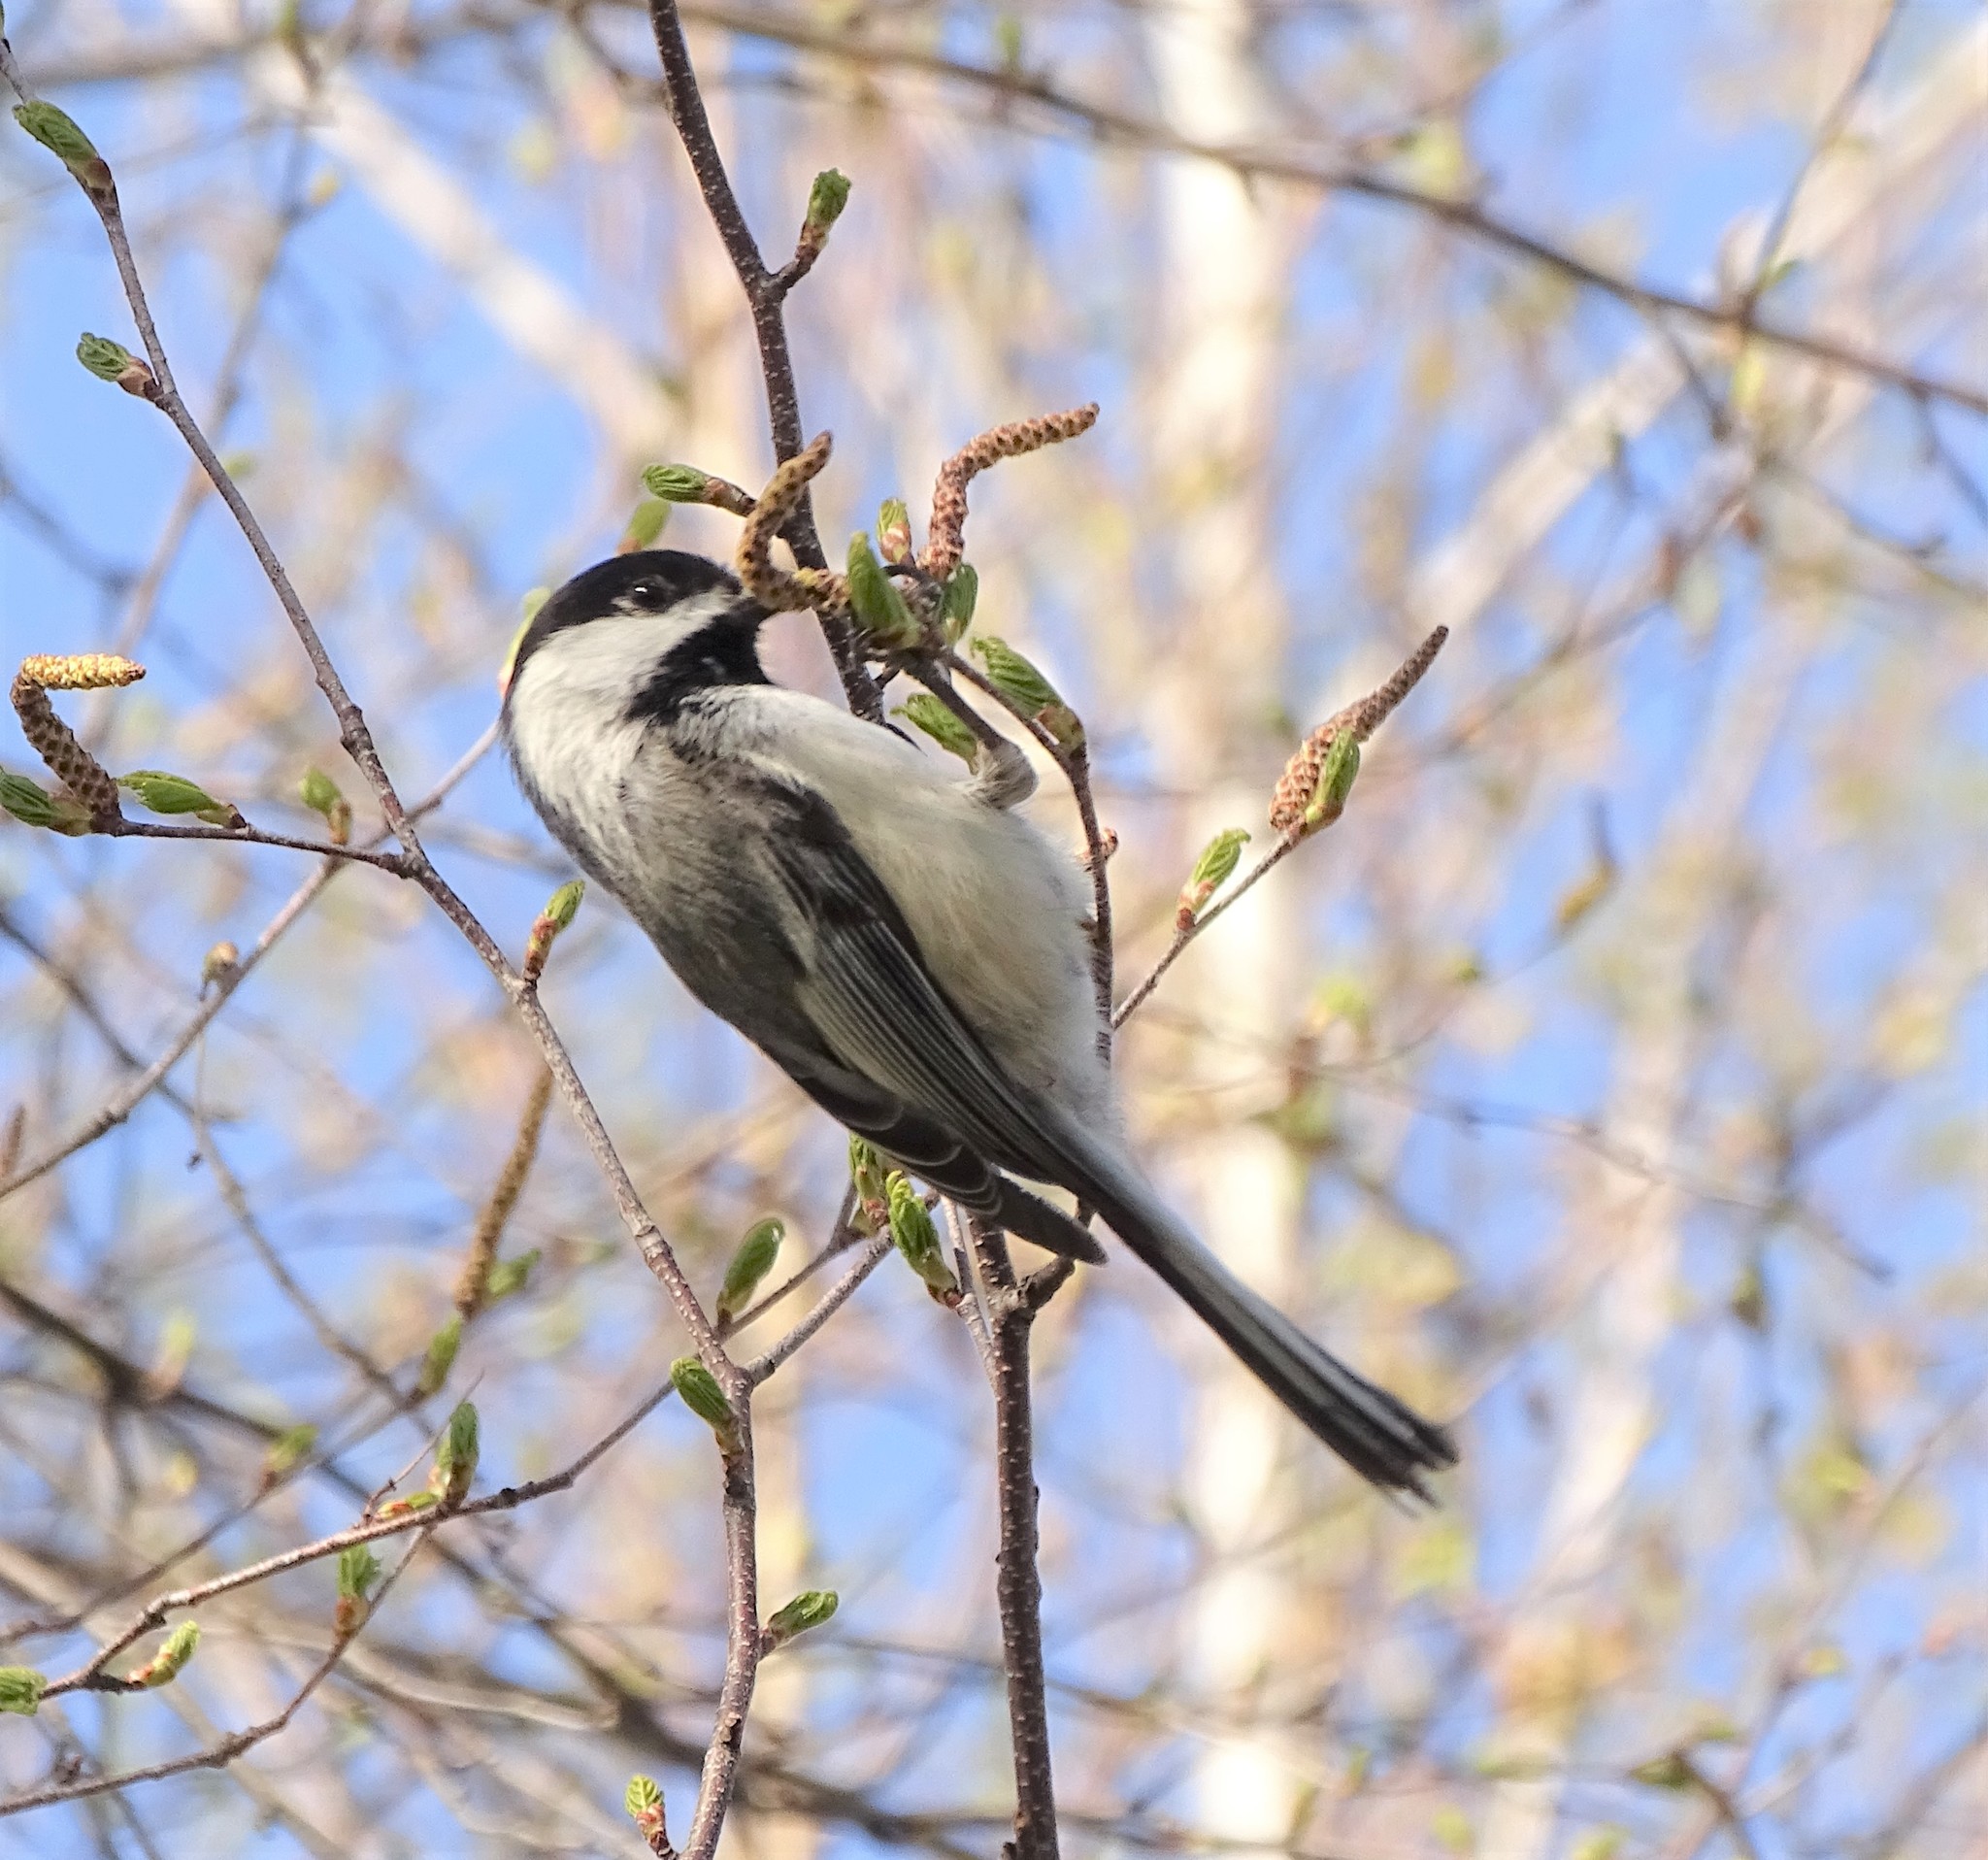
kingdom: Animalia
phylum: Chordata
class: Aves
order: Passeriformes
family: Paridae
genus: Poecile
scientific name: Poecile atricapillus
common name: Black-capped chickadee
